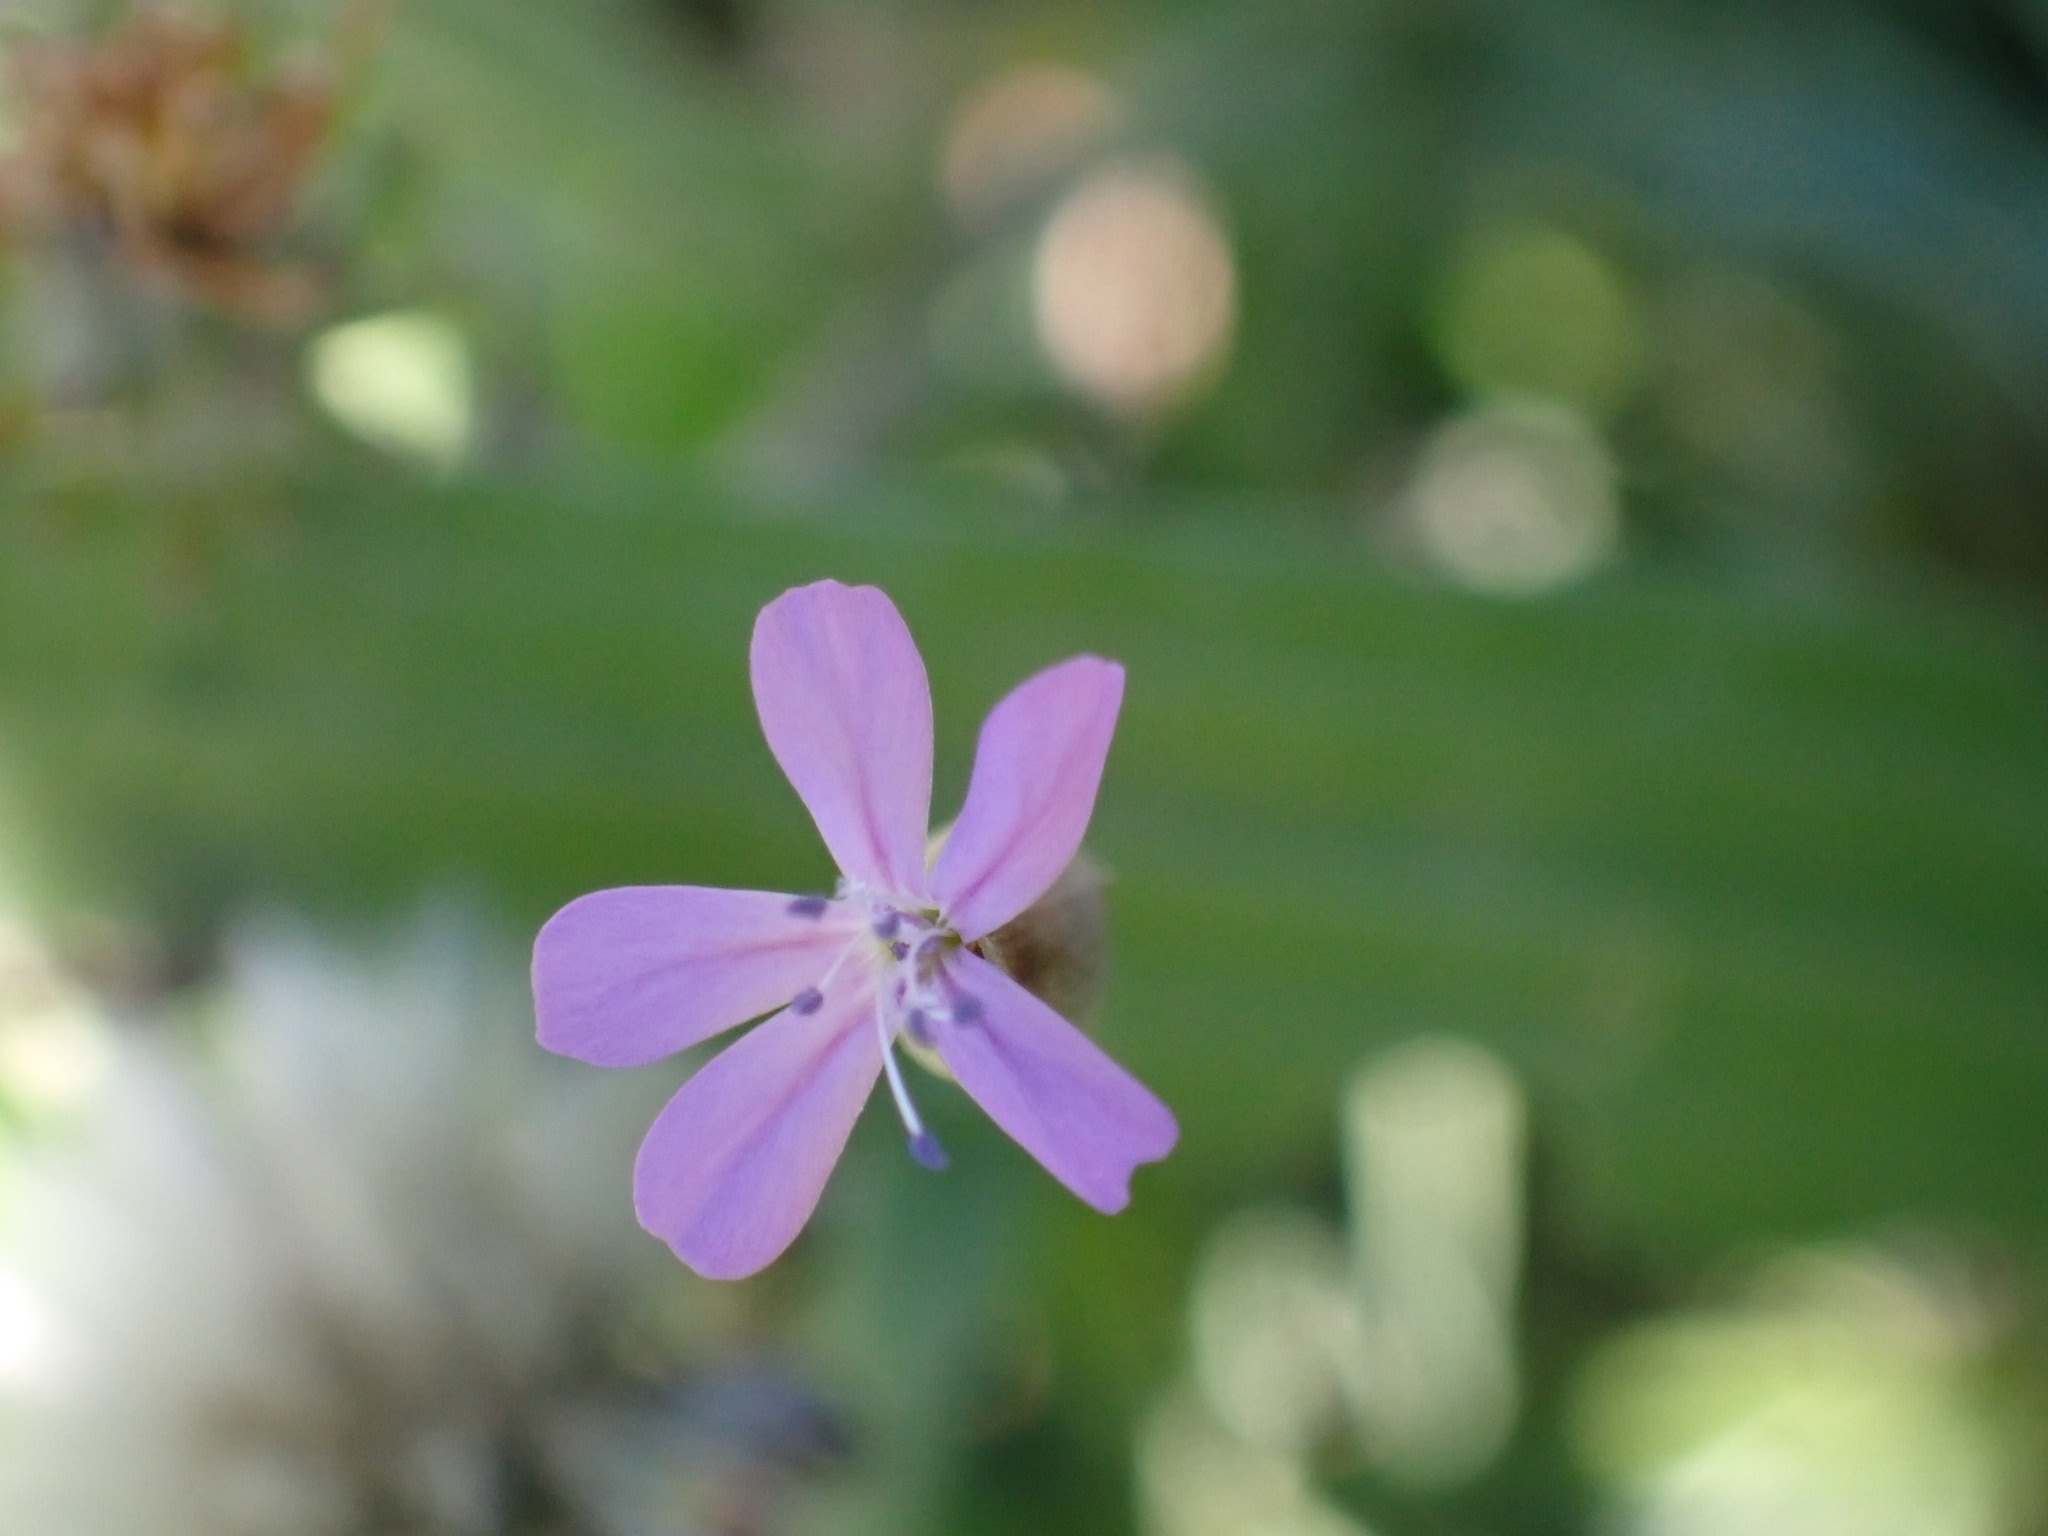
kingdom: Plantae
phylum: Tracheophyta
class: Magnoliopsida
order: Caryophyllales
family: Caryophyllaceae
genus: Petrorhagia
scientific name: Petrorhagia prolifera
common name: Proliferous pink
